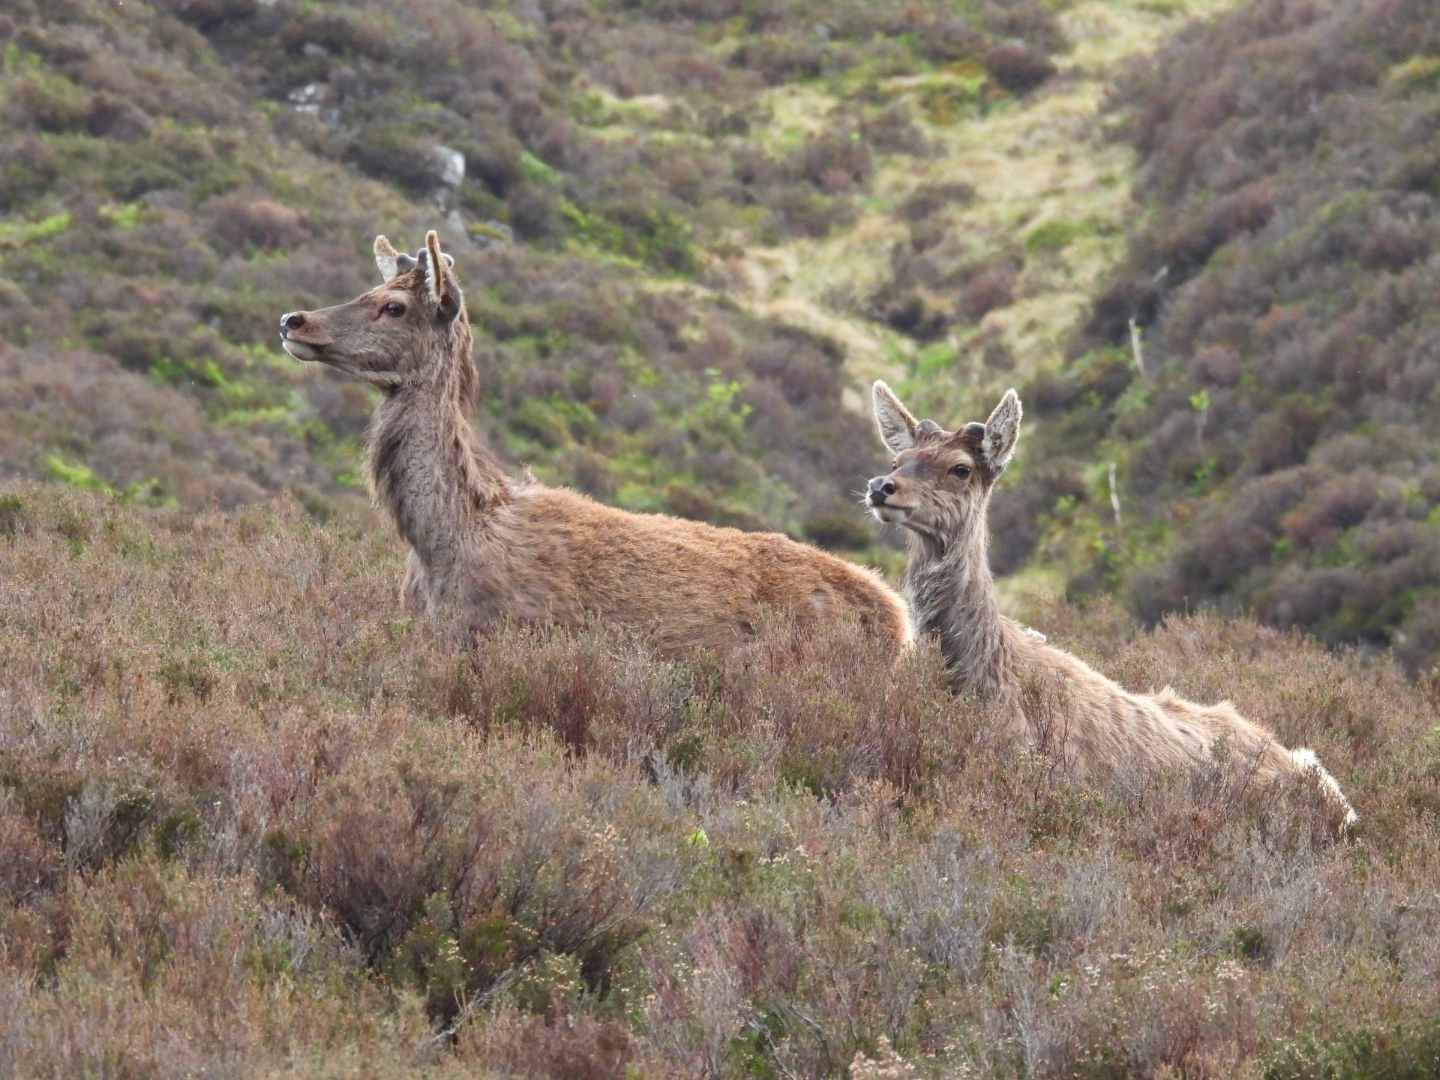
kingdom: Animalia
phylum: Chordata
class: Mammalia
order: Artiodactyla
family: Cervidae
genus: Cervus
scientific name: Cervus elaphus
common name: Red deer
